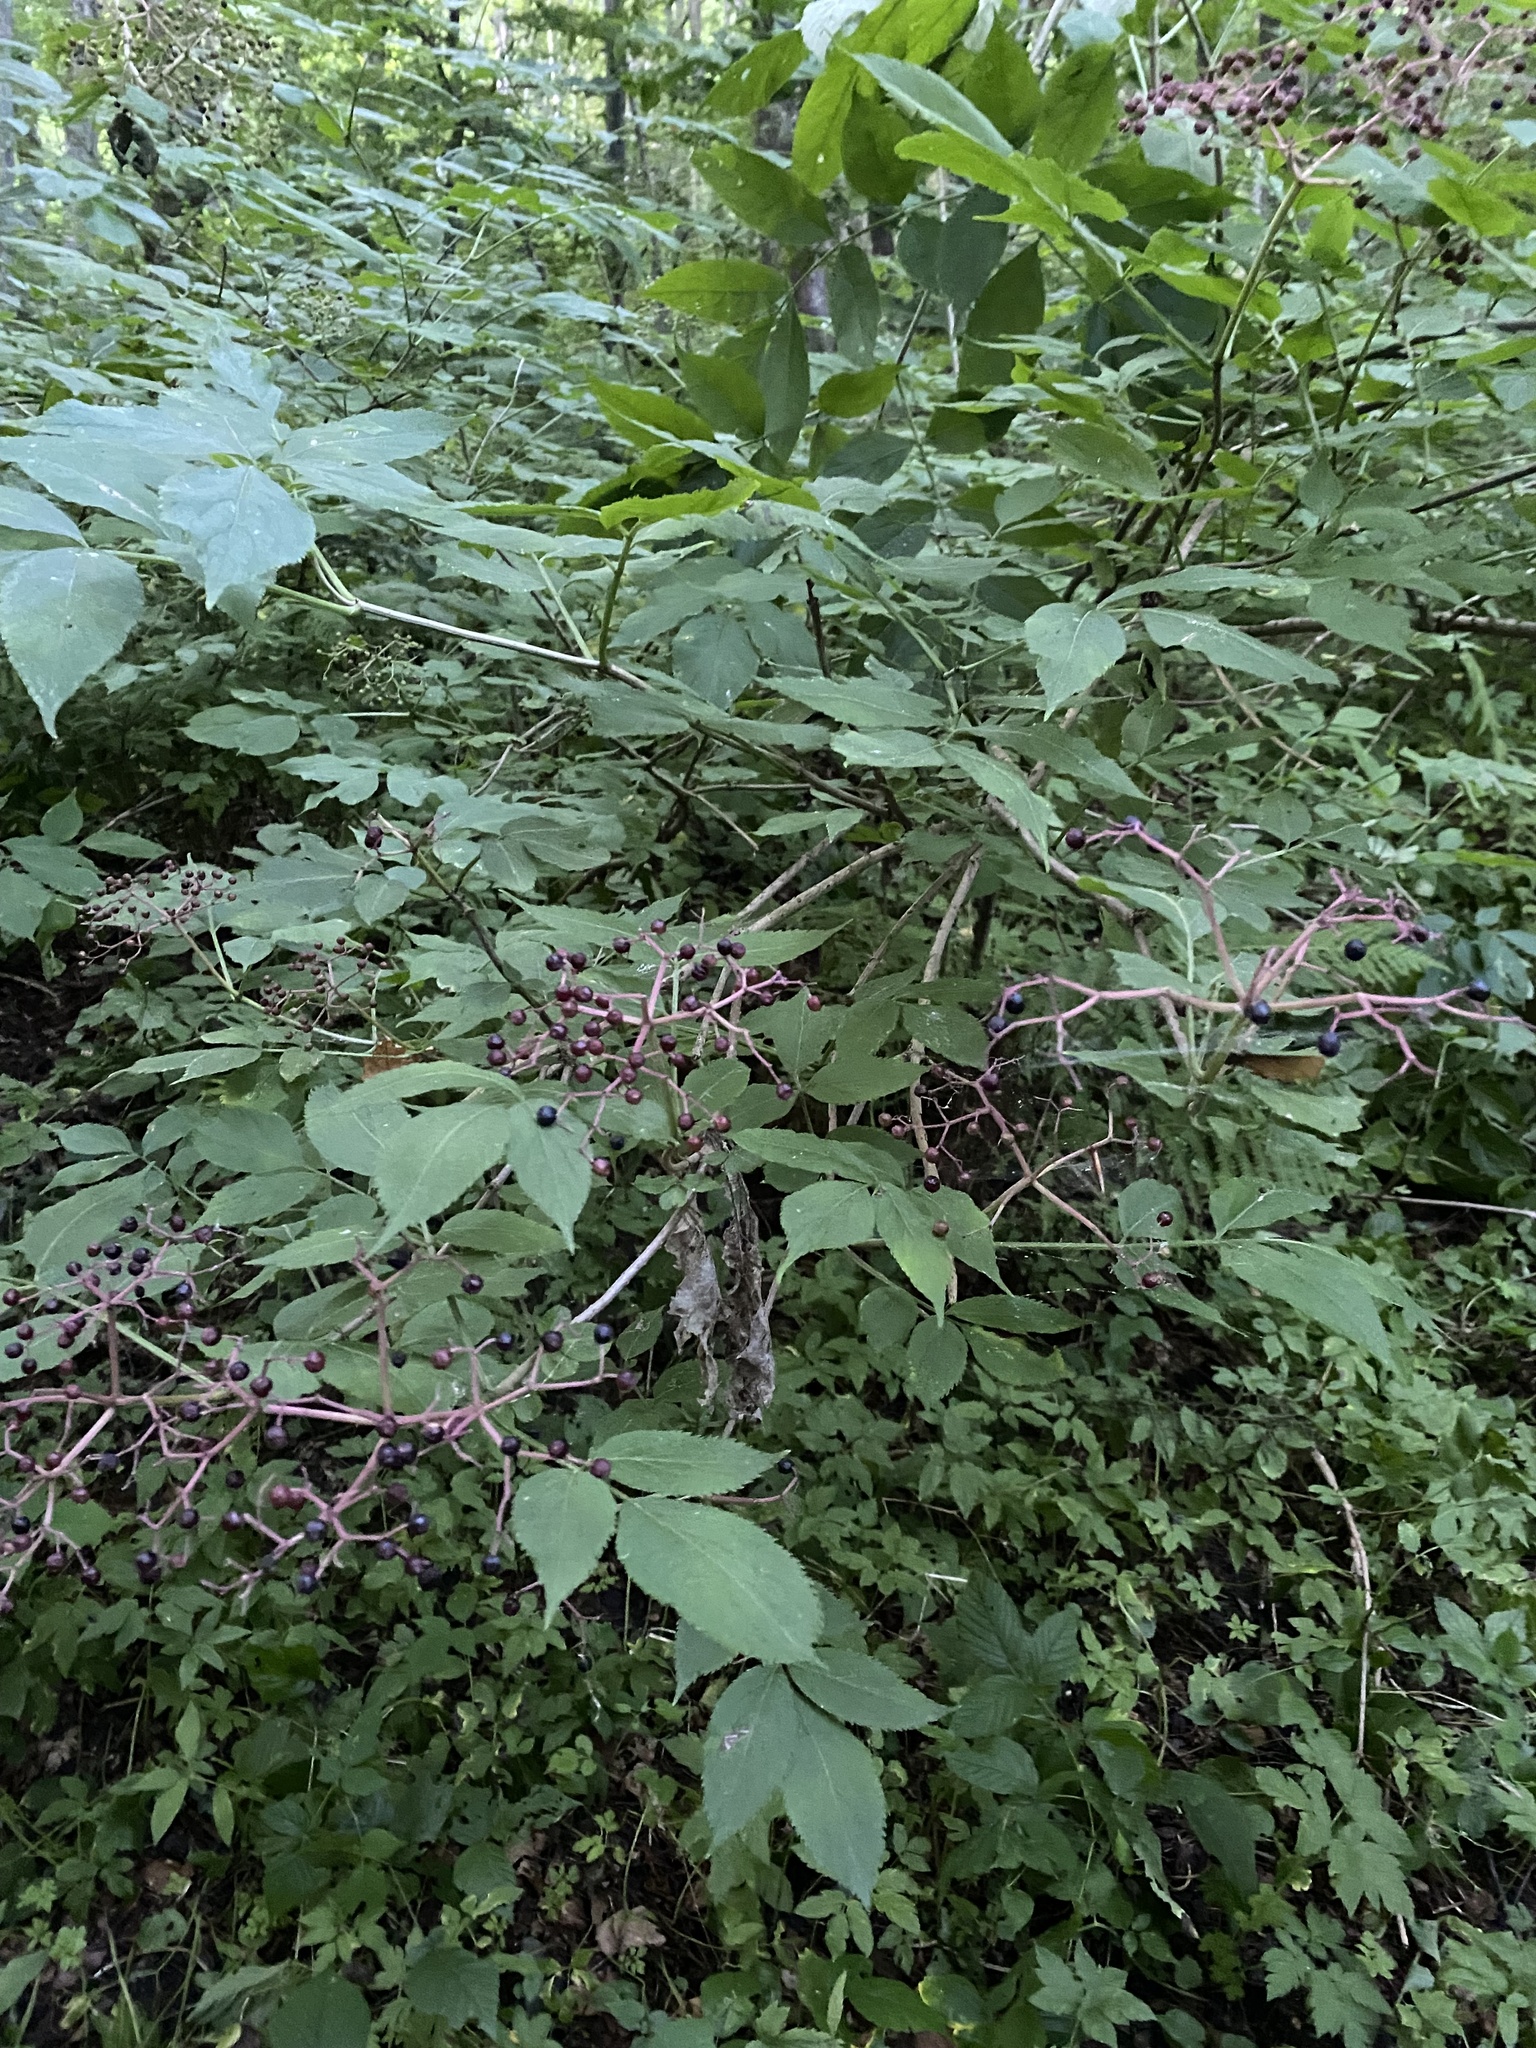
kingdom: Plantae
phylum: Tracheophyta
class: Magnoliopsida
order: Dipsacales
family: Viburnaceae
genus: Sambucus
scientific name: Sambucus nigra
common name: Elder
